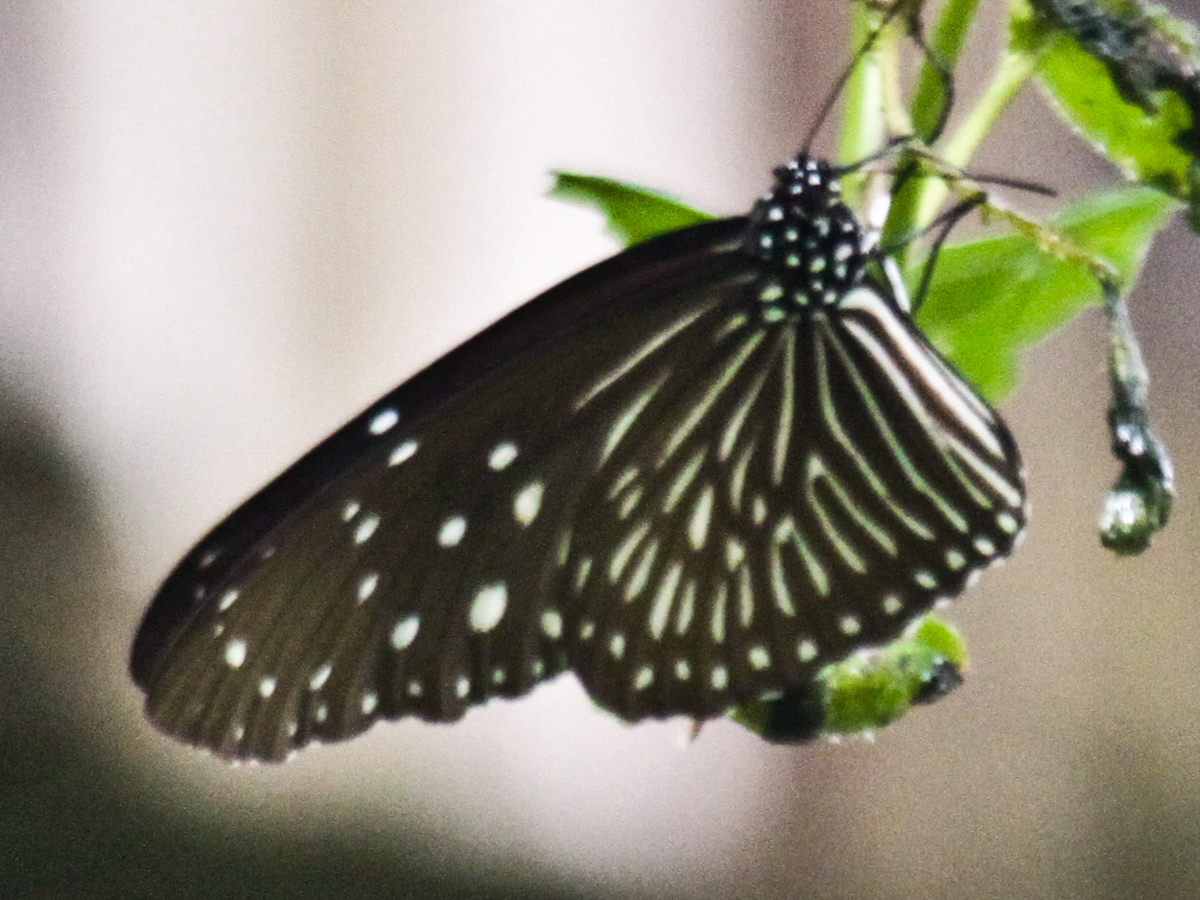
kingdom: Animalia
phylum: Arthropoda
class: Insecta
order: Lepidoptera
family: Nymphalidae
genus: Euploea
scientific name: Euploea mulciber
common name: Striped blue crow butterfly
